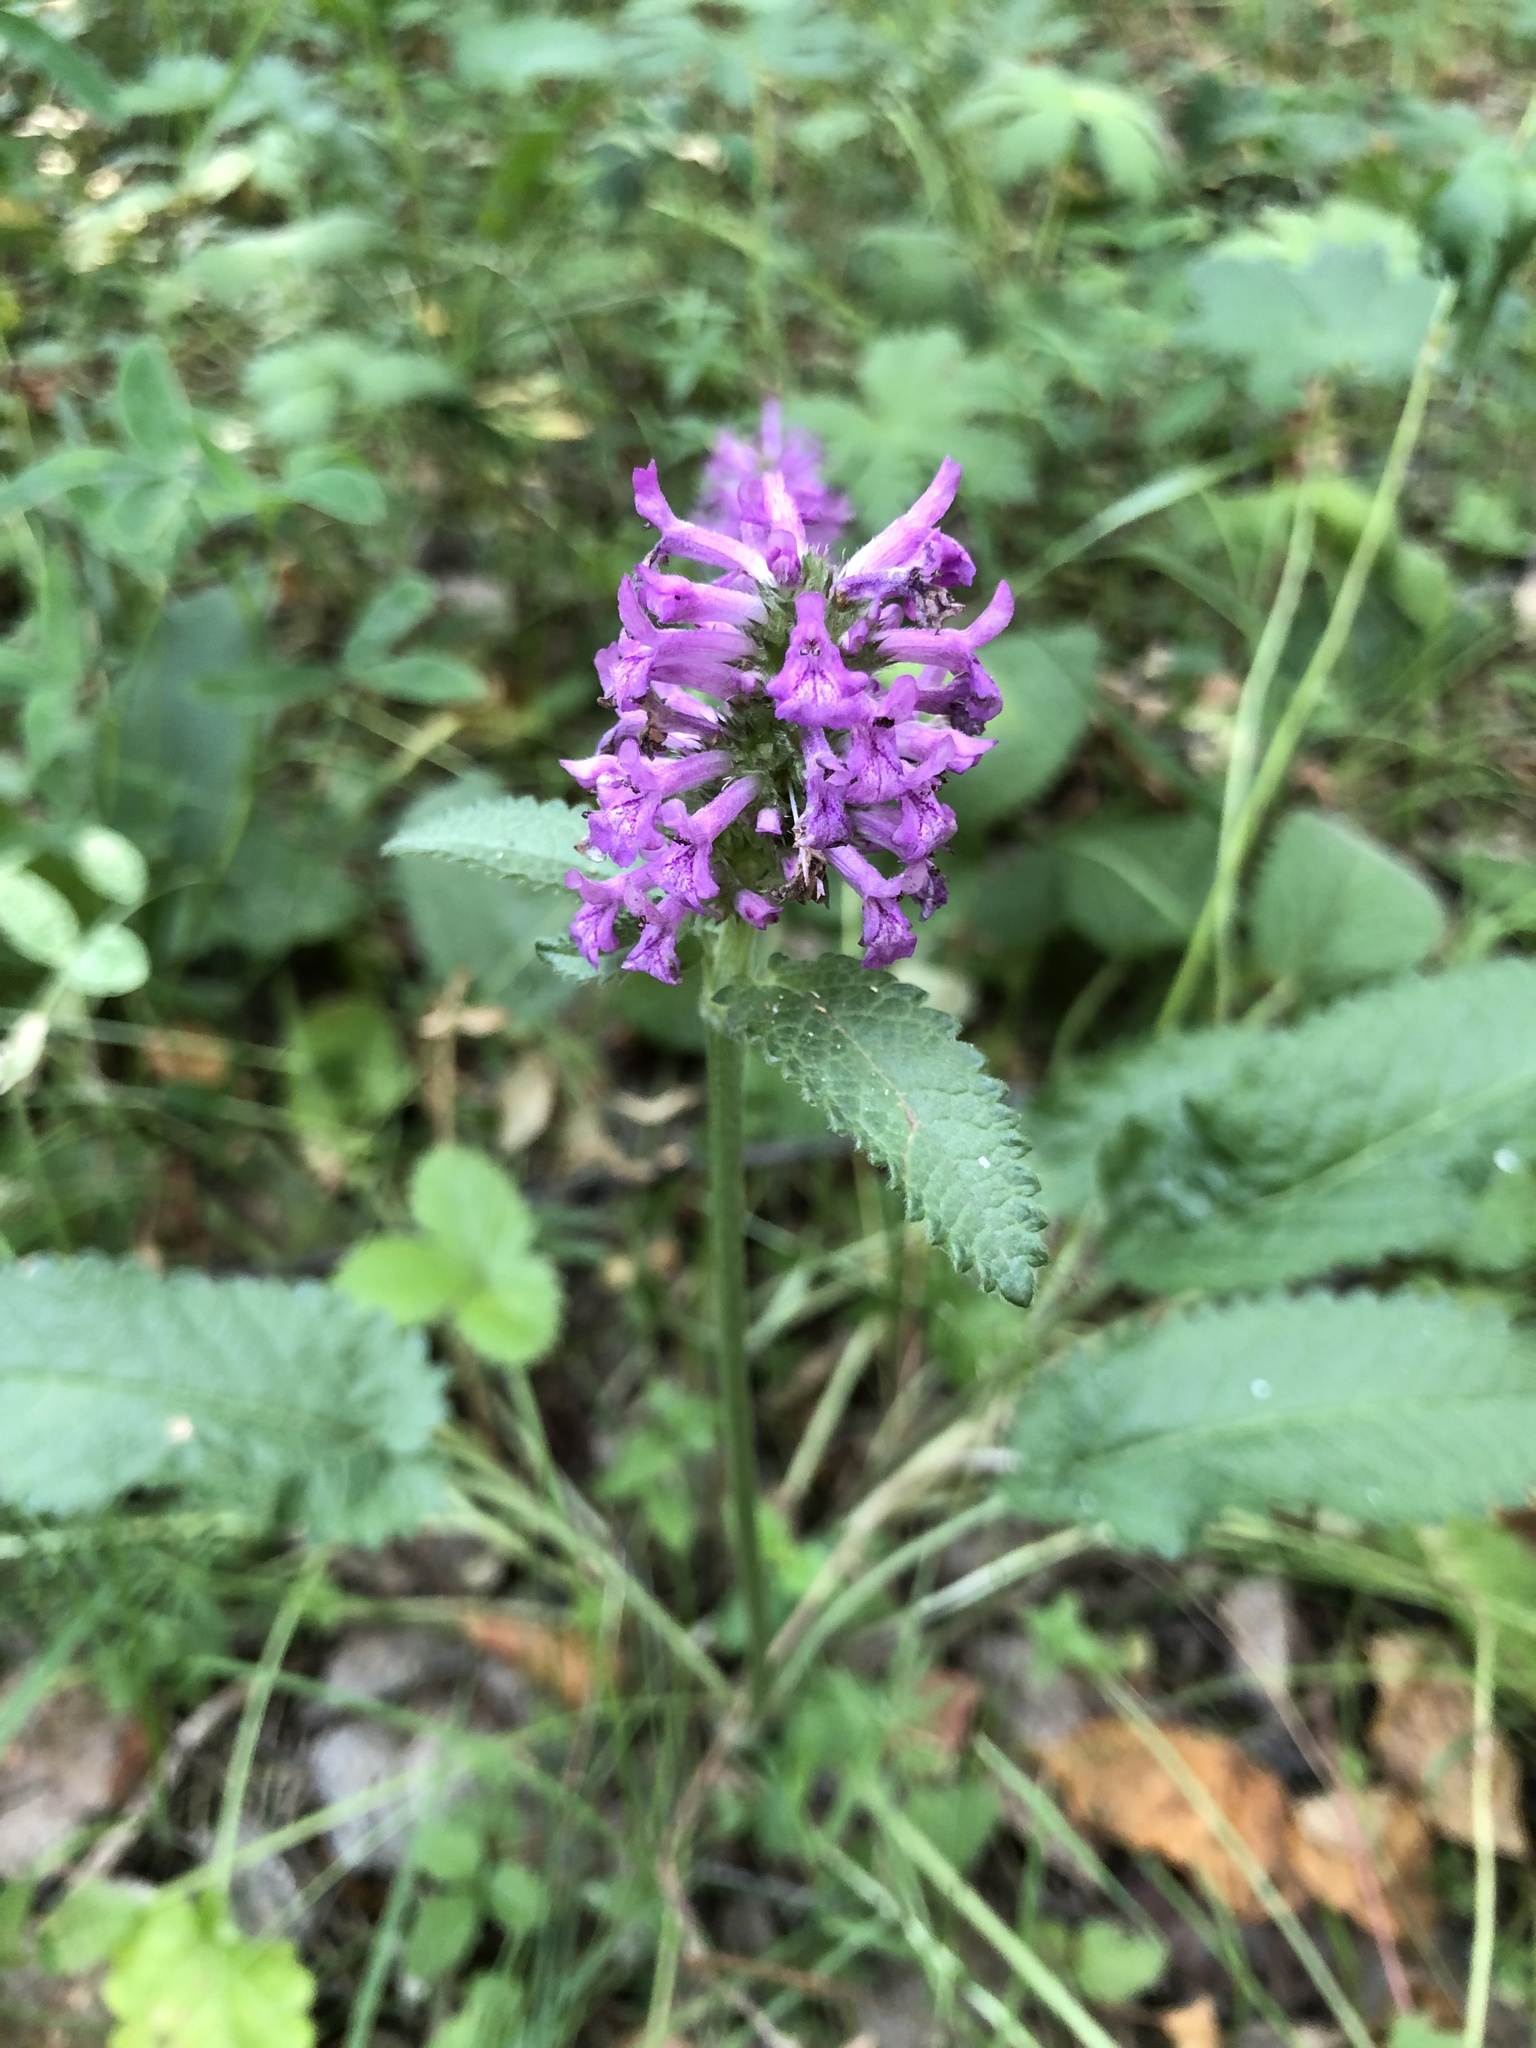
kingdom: Plantae
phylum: Tracheophyta
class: Magnoliopsida
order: Lamiales
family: Lamiaceae
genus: Betonica
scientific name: Betonica officinalis
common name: Bishop's-wort
